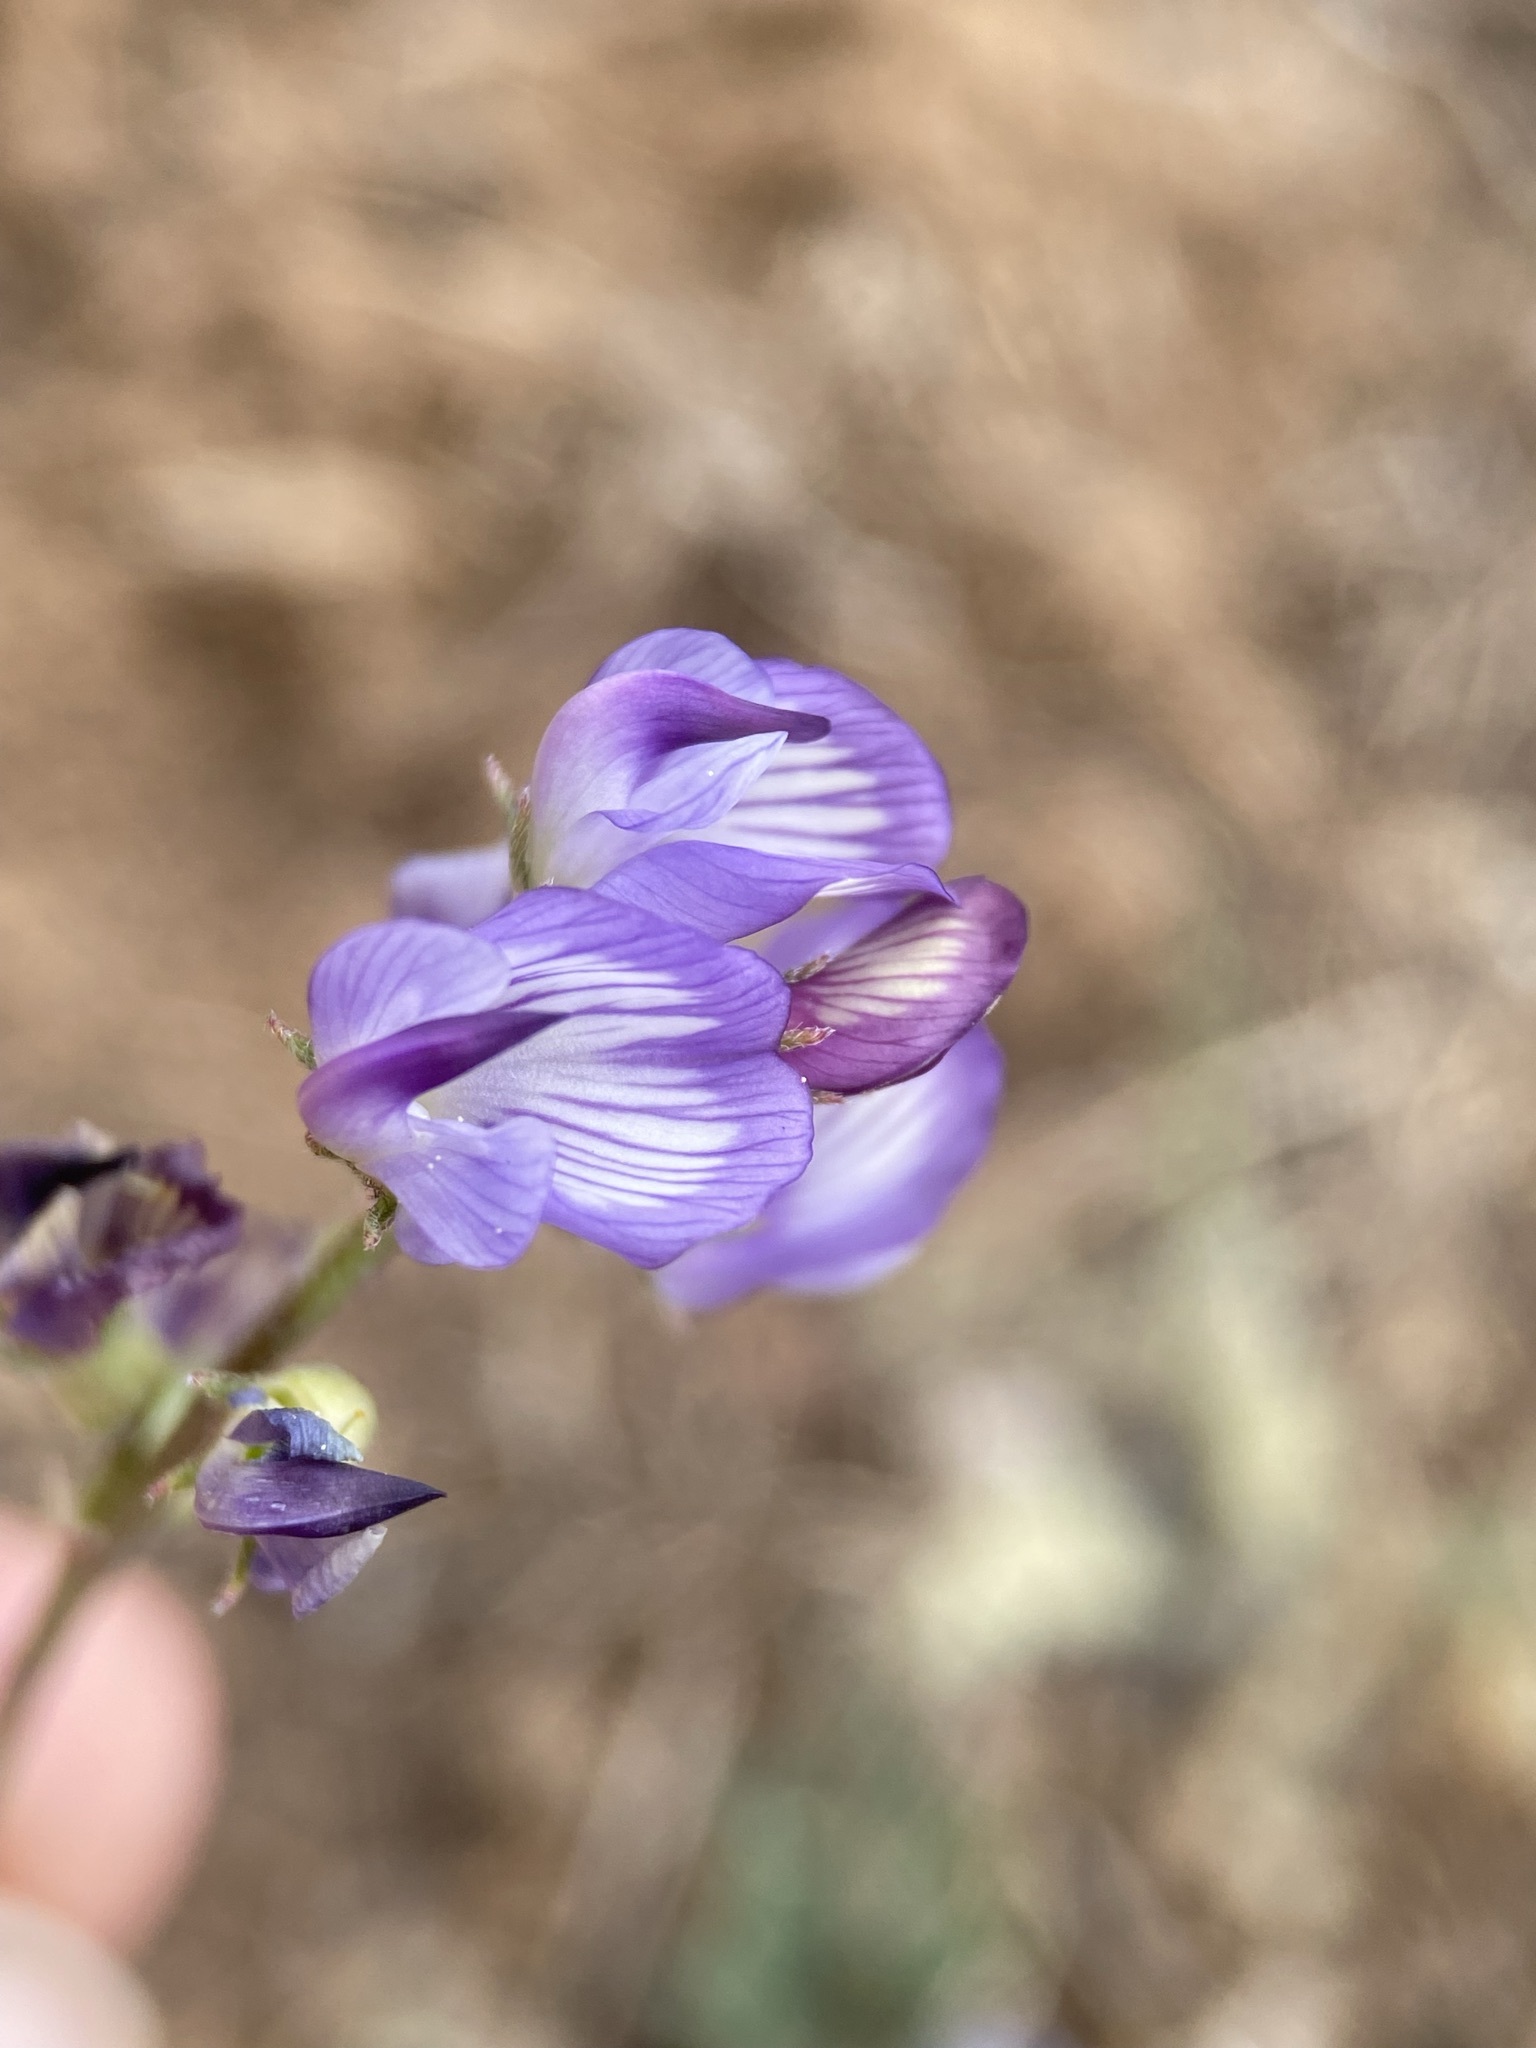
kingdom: Plantae
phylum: Tracheophyta
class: Magnoliopsida
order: Fabales
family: Fabaceae
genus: Astragalus
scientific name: Astragalus miser
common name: Timber milkvetch
